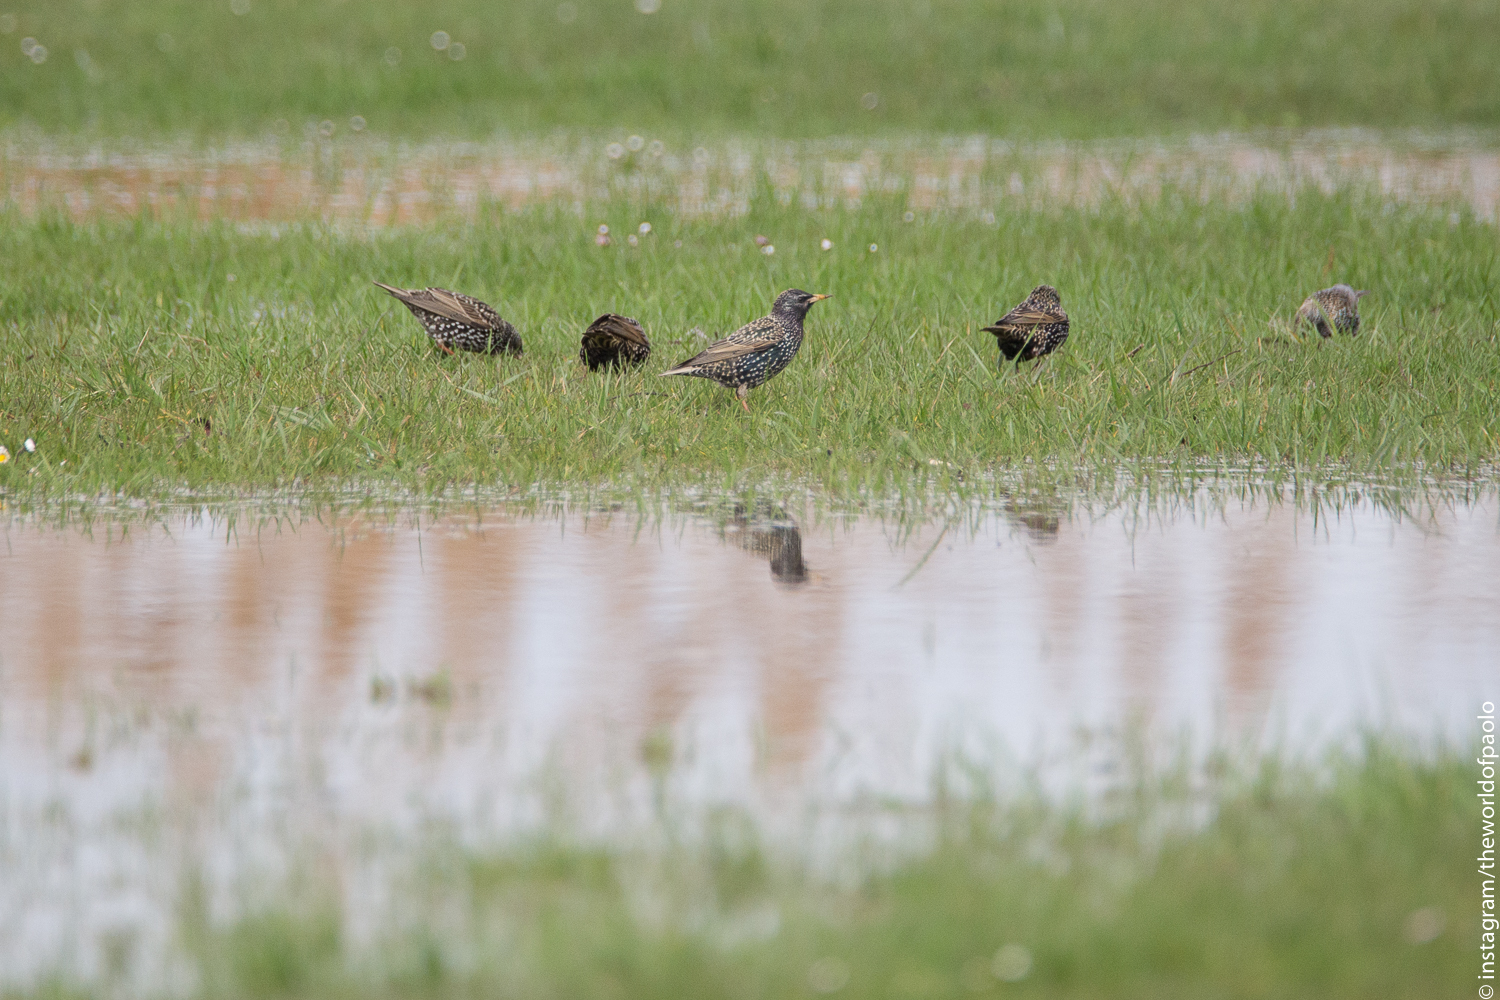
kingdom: Animalia
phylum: Chordata
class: Aves
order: Passeriformes
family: Sturnidae
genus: Sturnus
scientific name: Sturnus vulgaris
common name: Common starling
